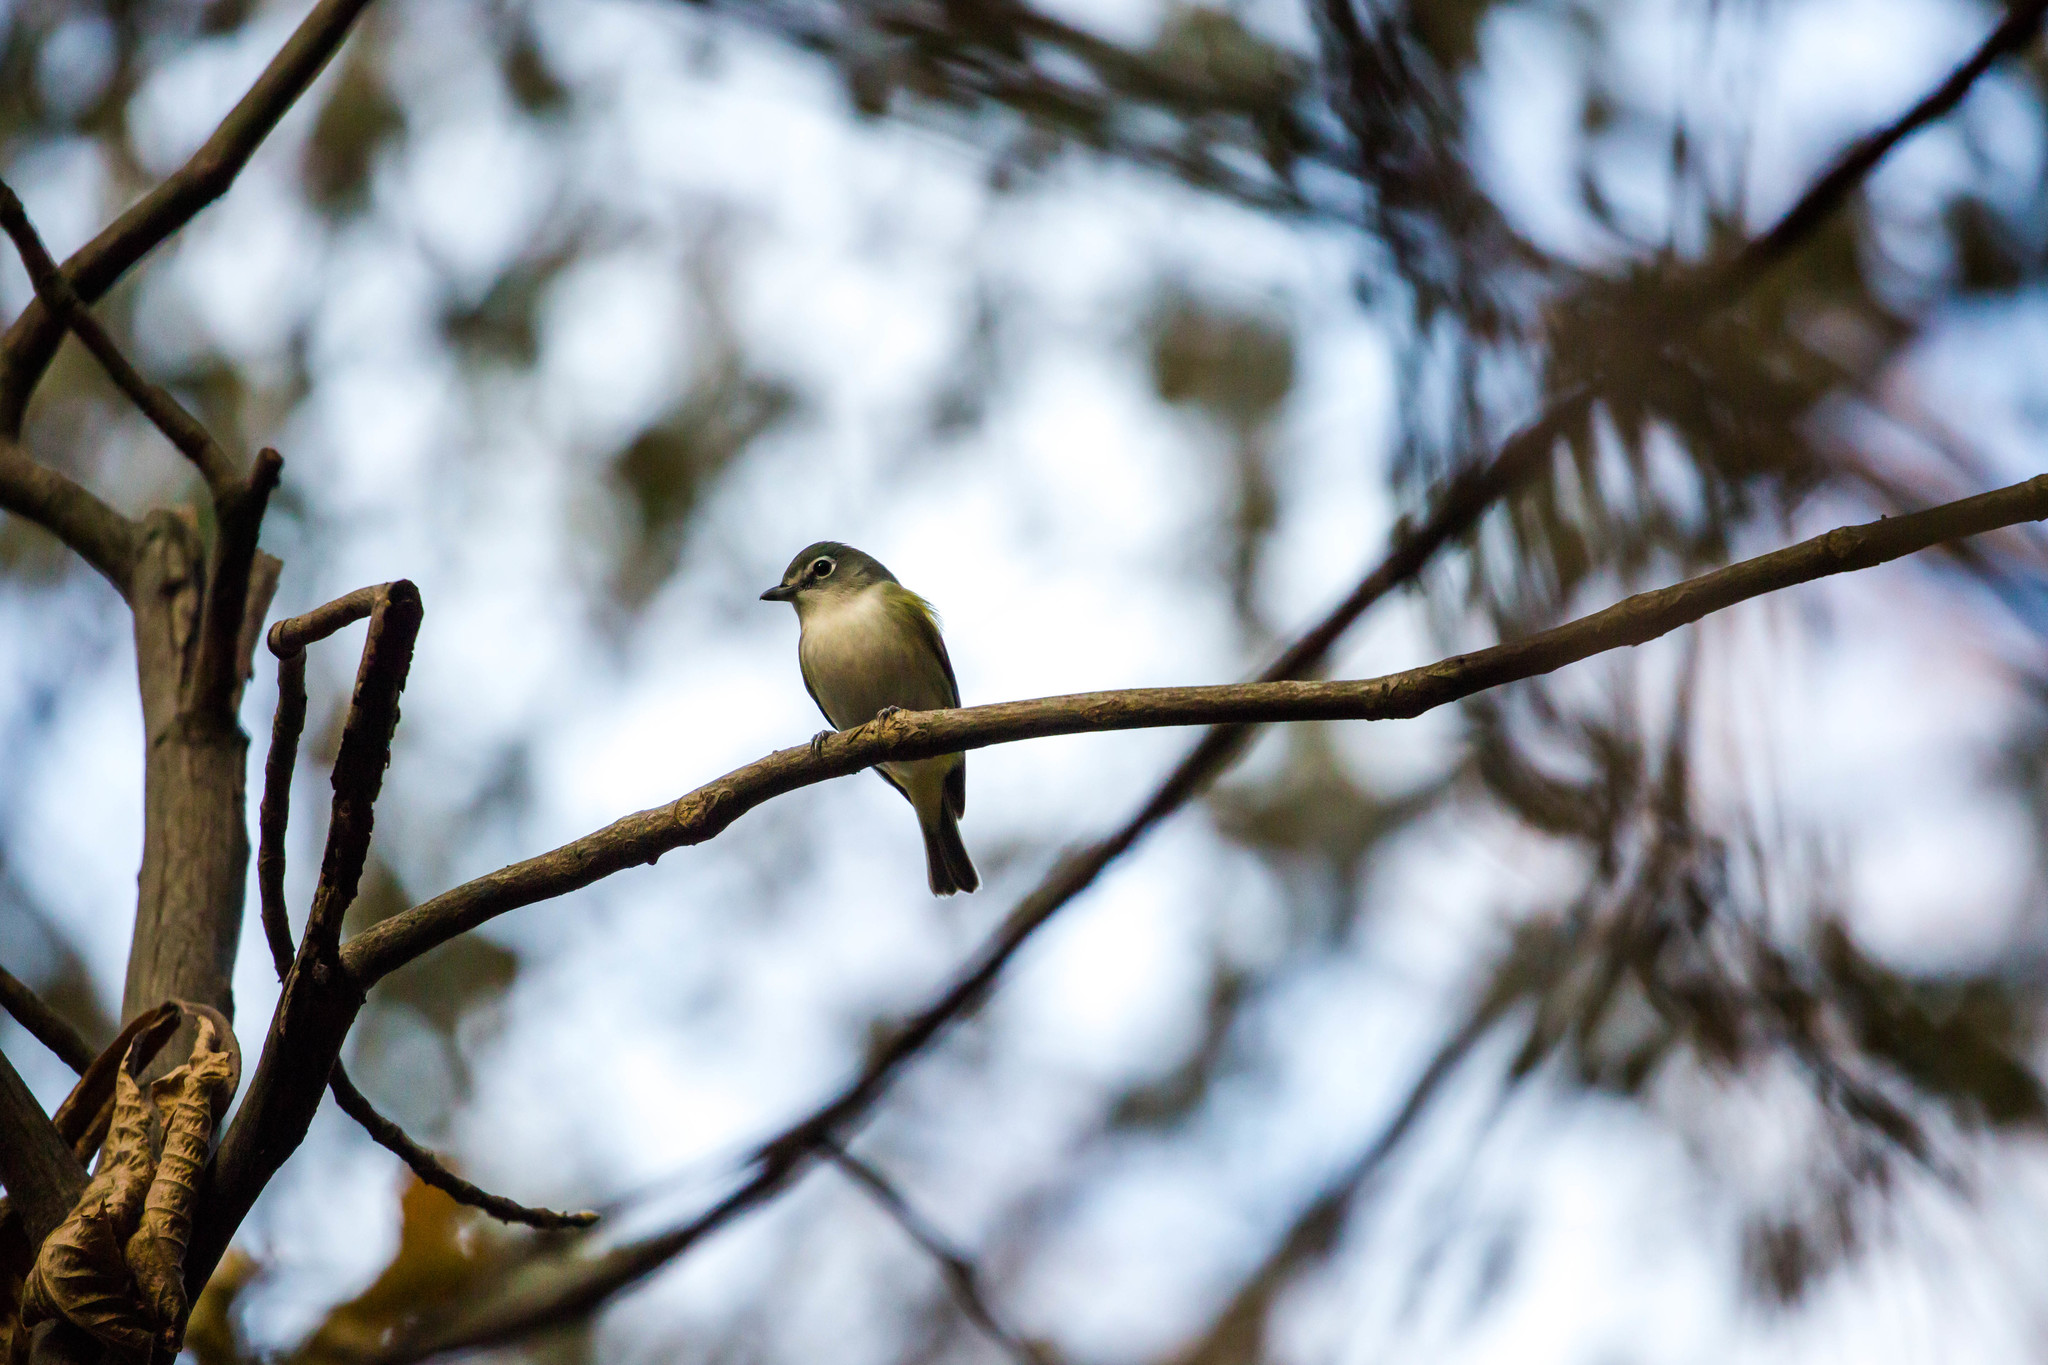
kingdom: Animalia
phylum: Chordata
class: Aves
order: Passeriformes
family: Vireonidae
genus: Vireo
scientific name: Vireo solitarius
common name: Blue-headed vireo
